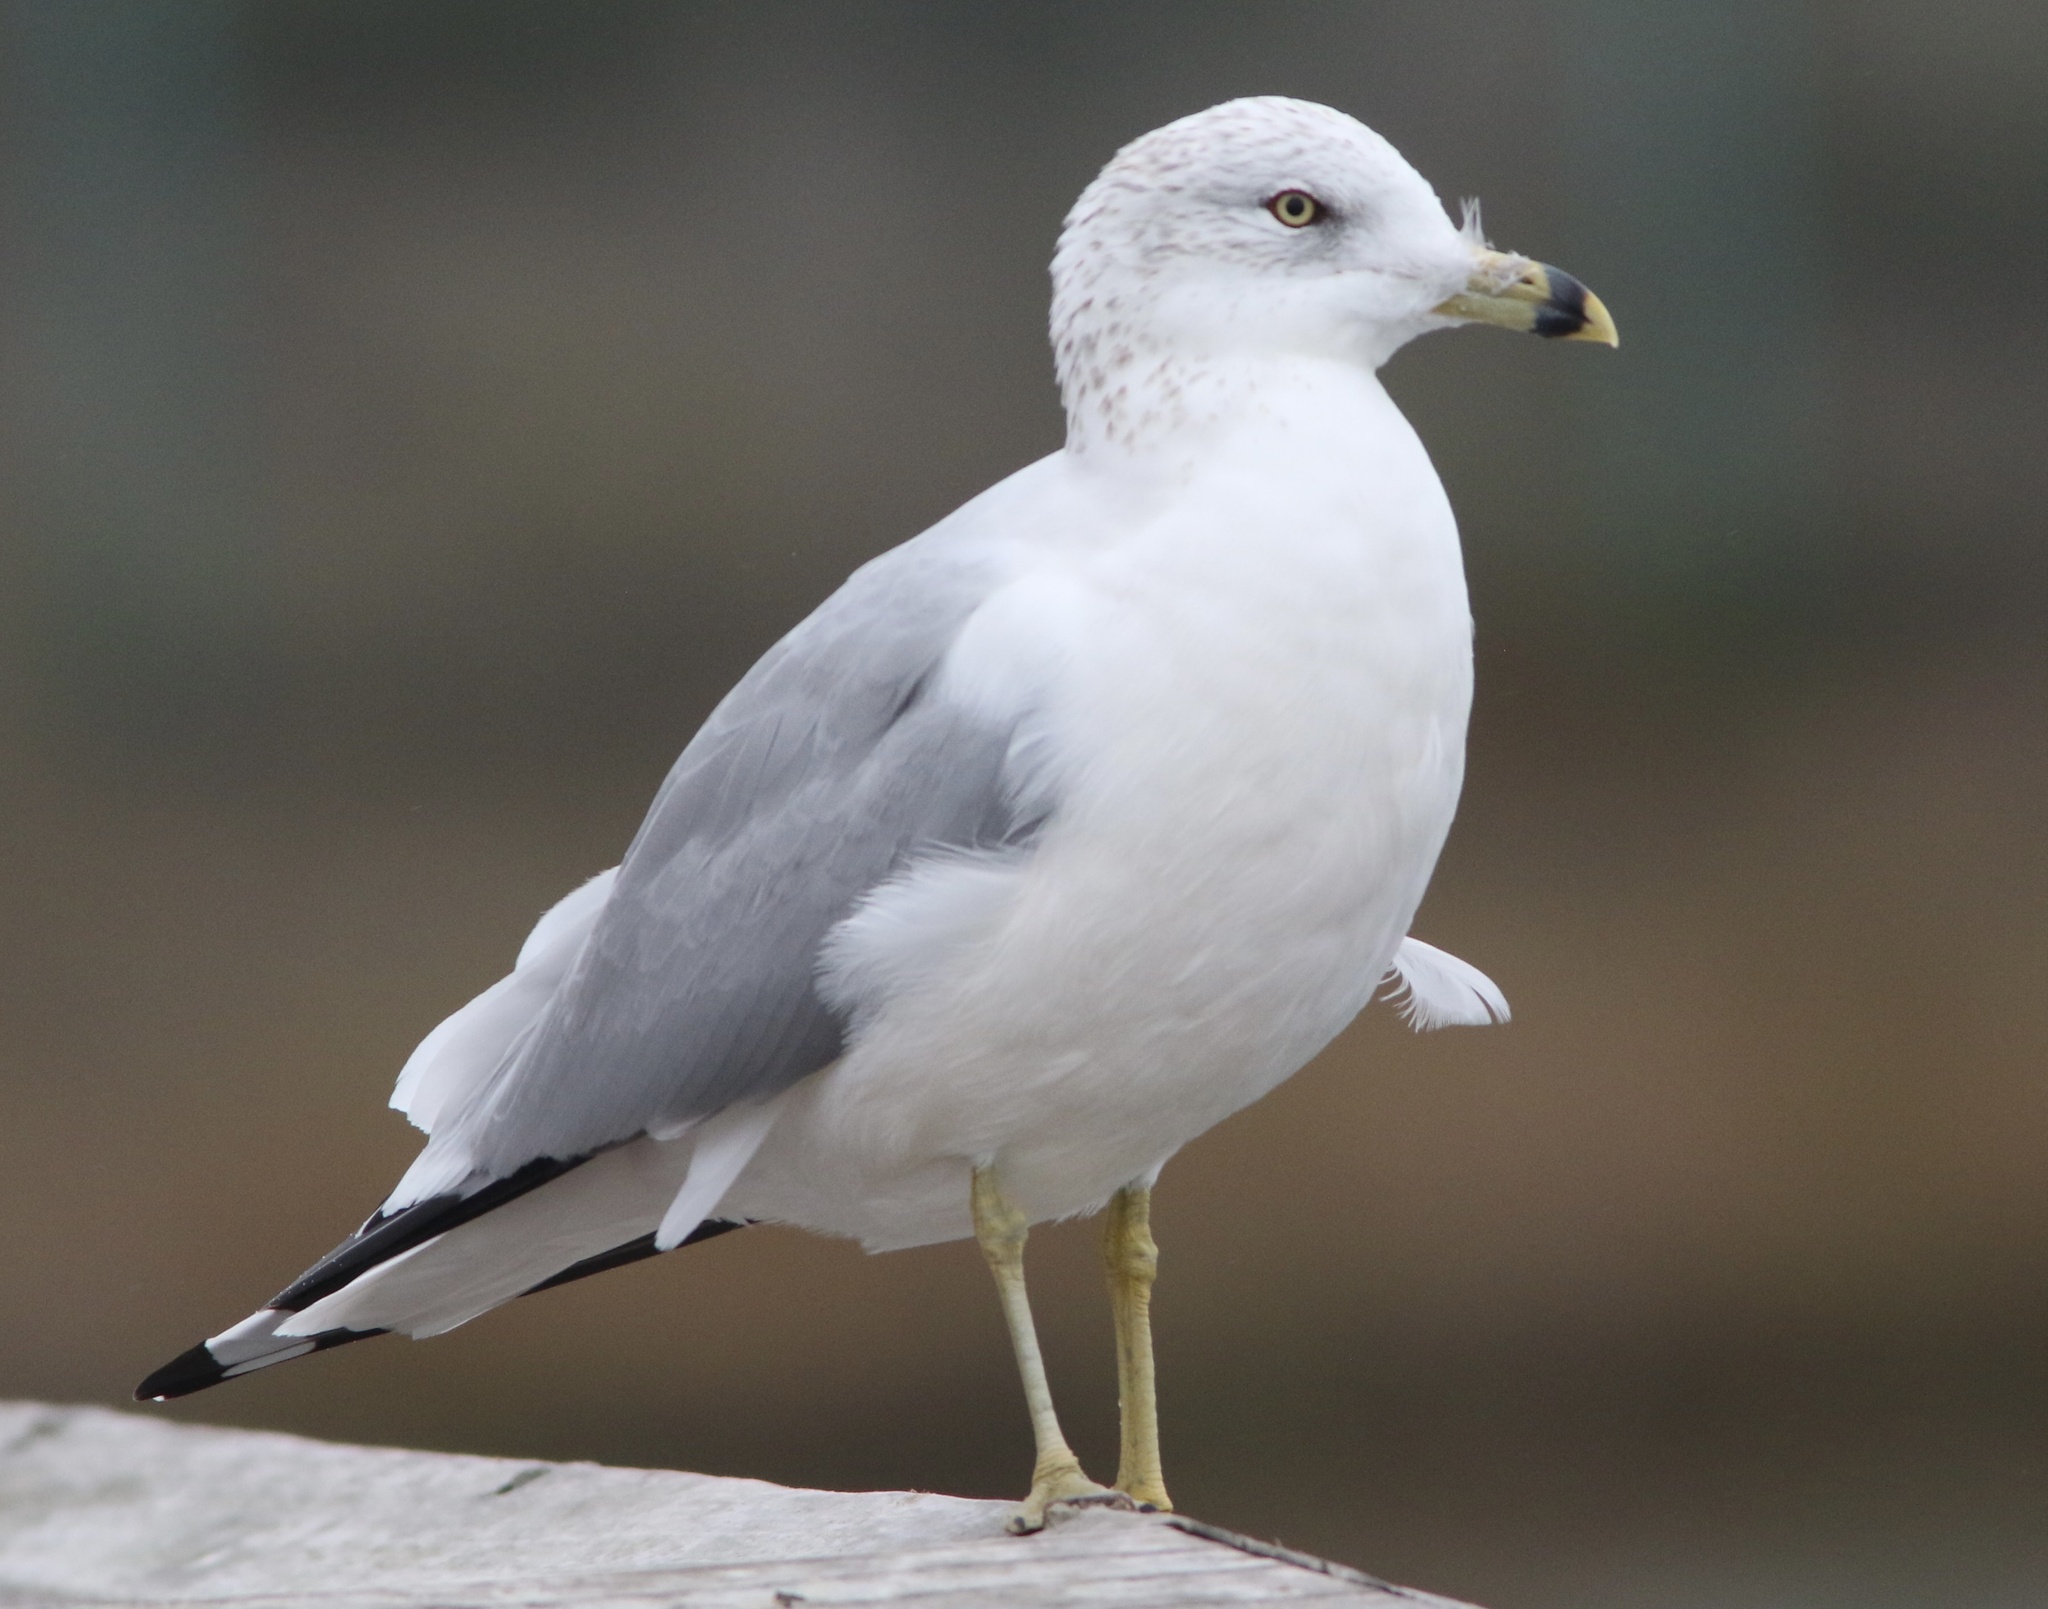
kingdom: Animalia
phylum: Chordata
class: Aves
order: Charadriiformes
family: Laridae
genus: Larus
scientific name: Larus delawarensis
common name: Ring-billed gull
